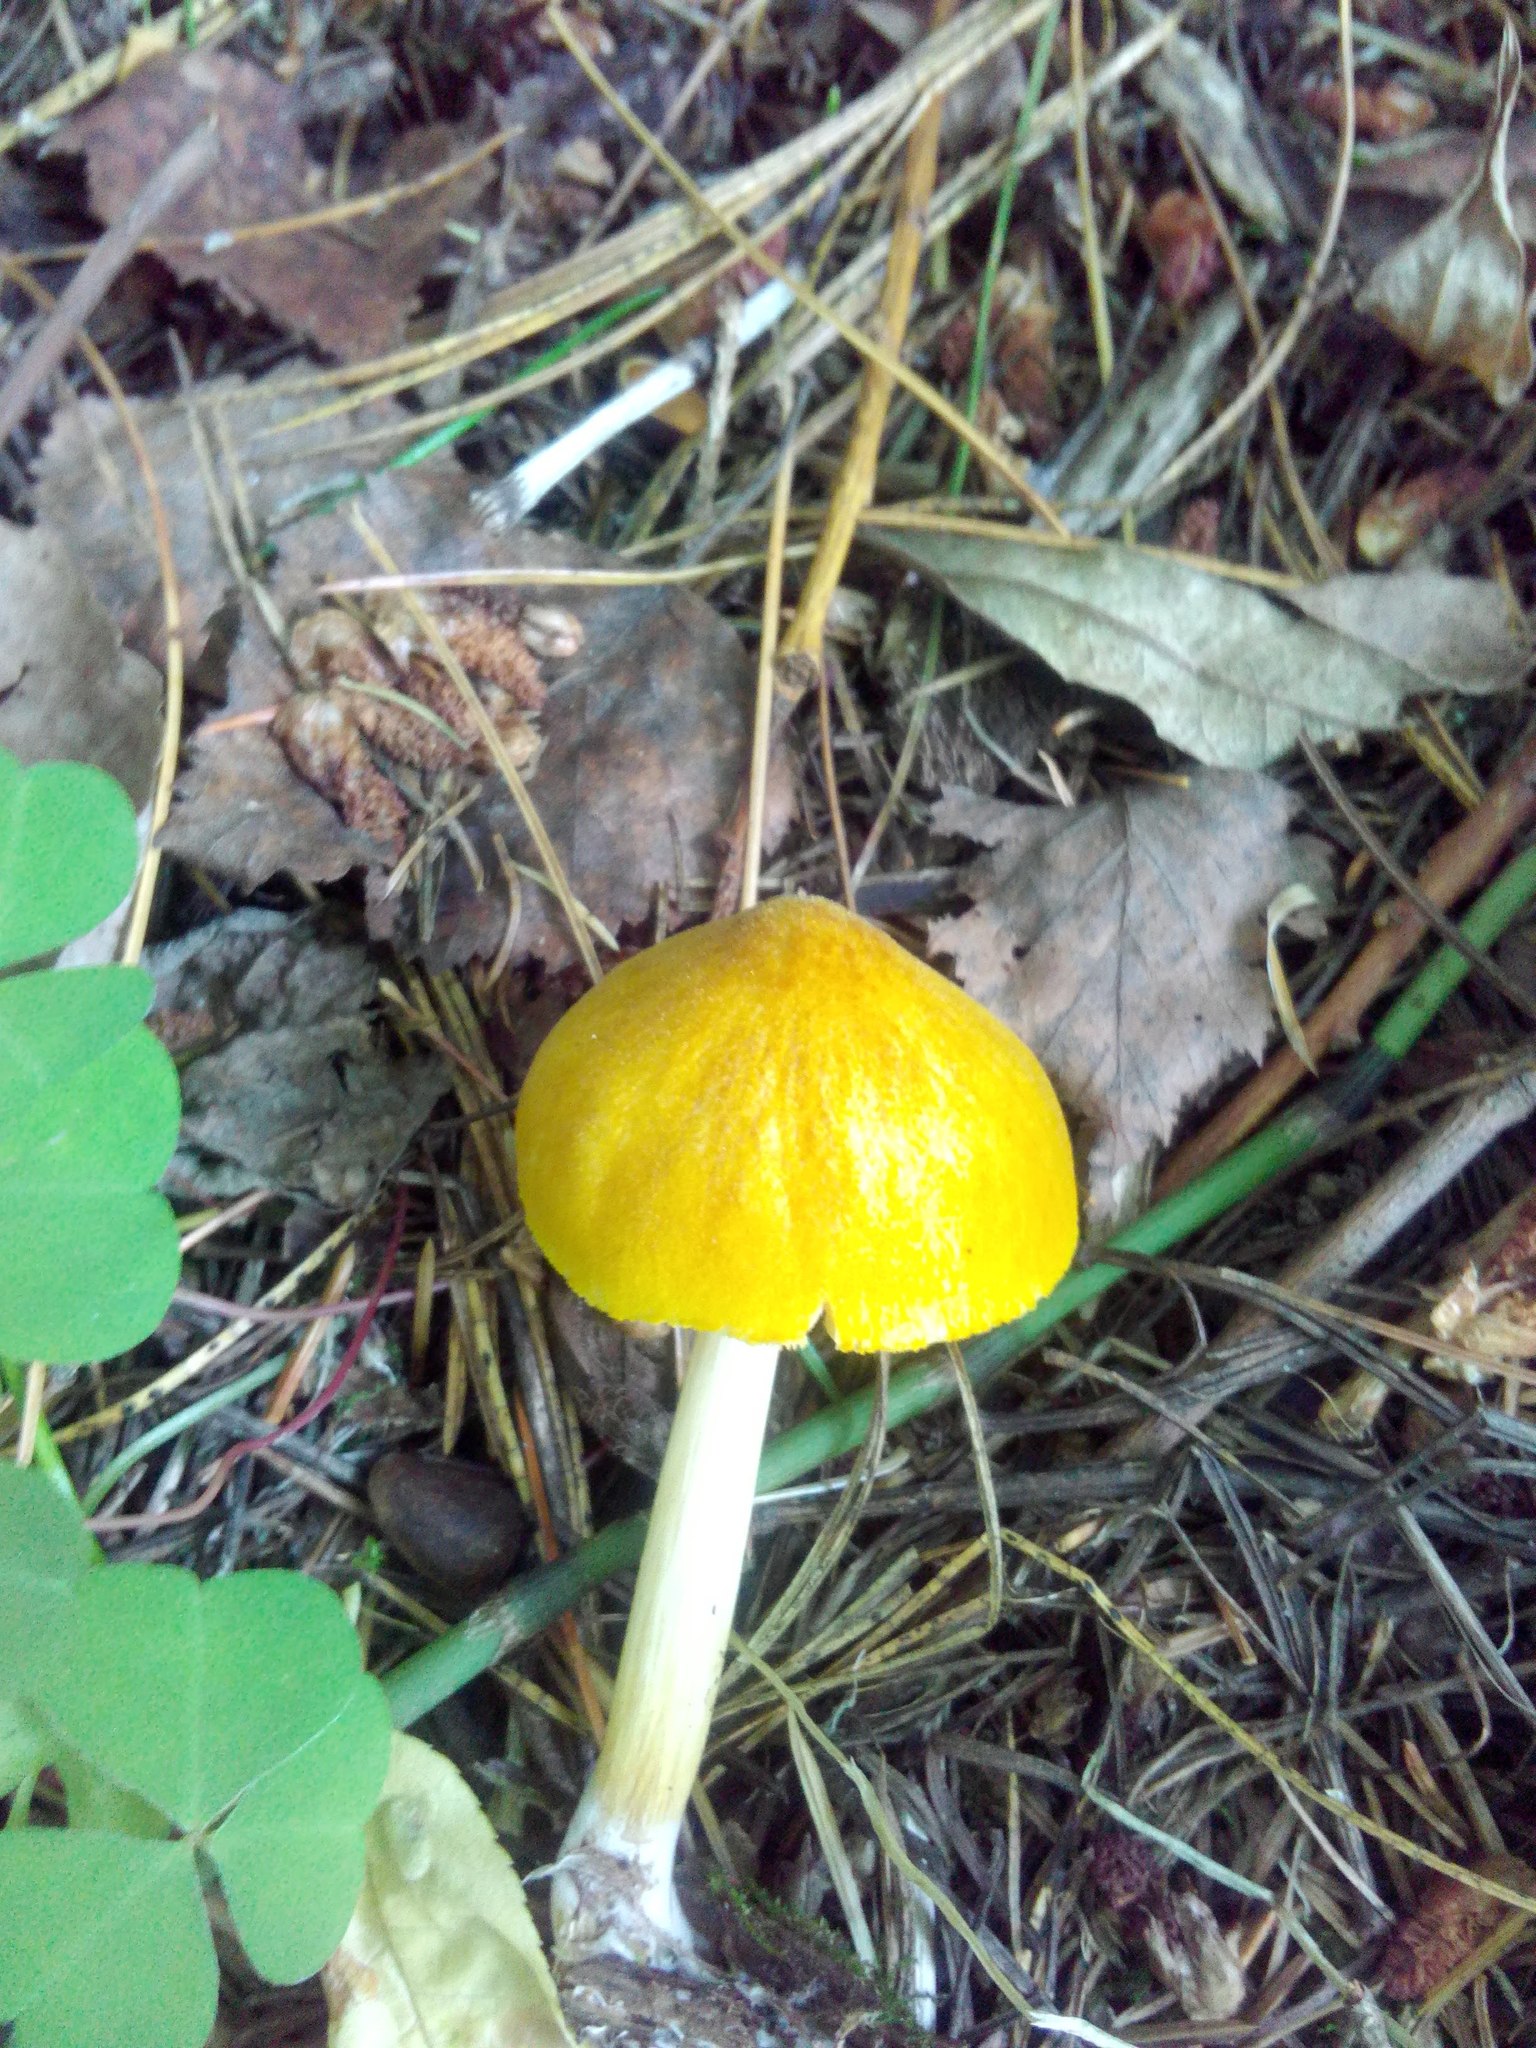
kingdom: Fungi
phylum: Basidiomycota
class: Agaricomycetes
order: Agaricales
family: Pluteaceae
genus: Pluteus
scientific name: Pluteus leoninus
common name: Lion shield
